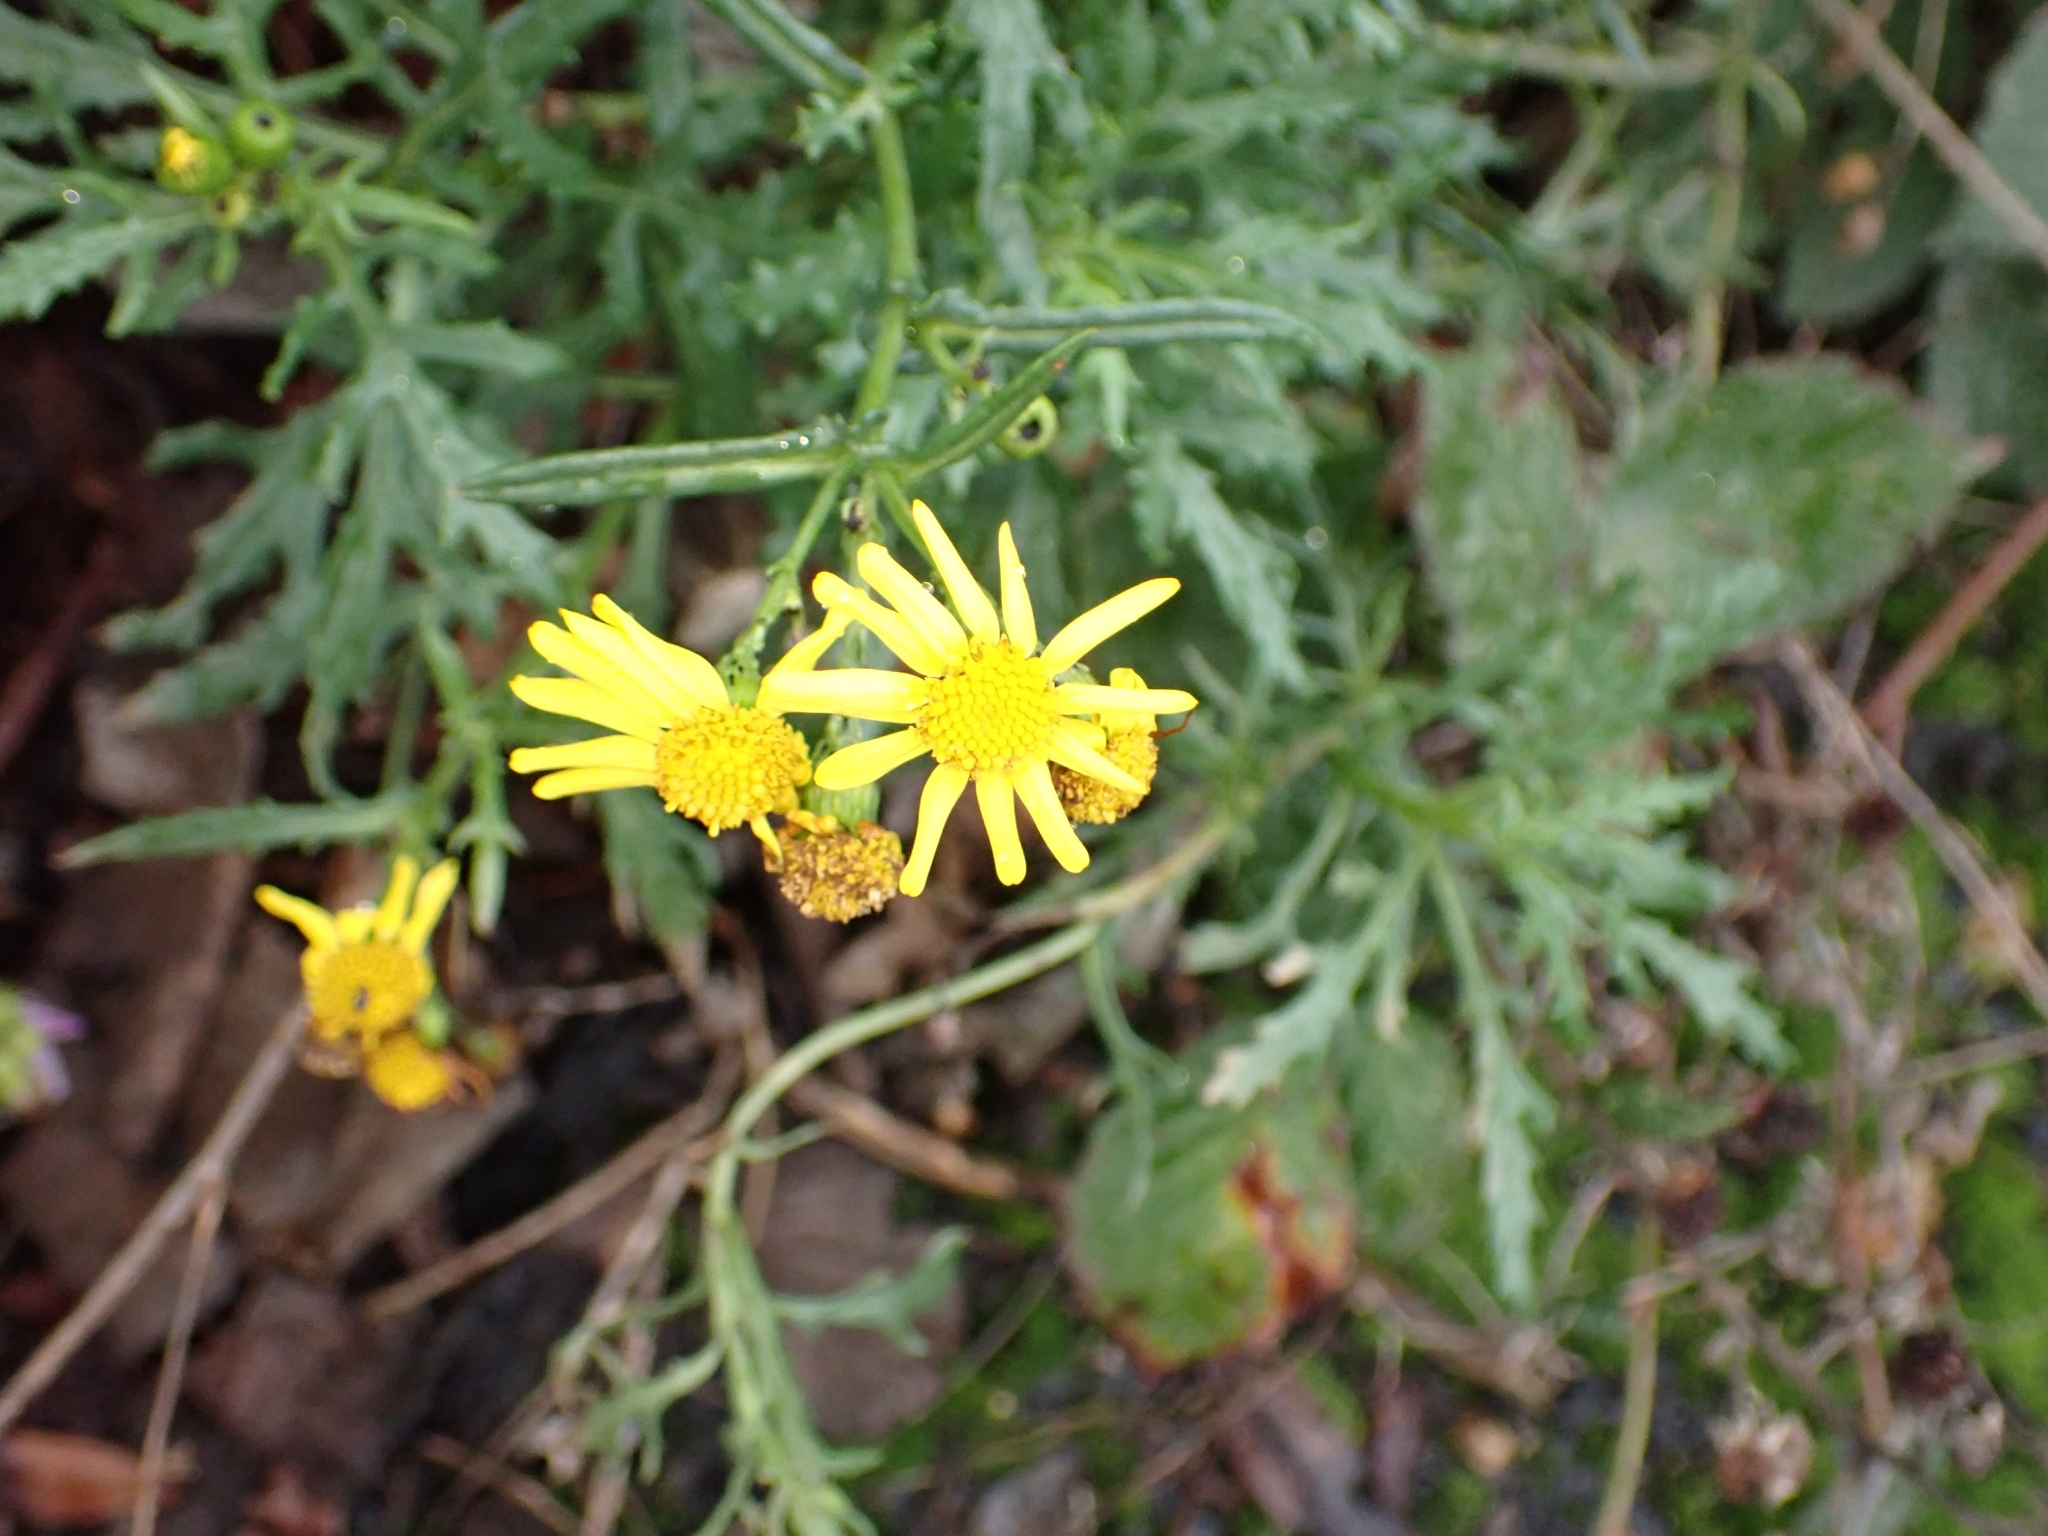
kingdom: Plantae
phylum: Tracheophyta
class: Magnoliopsida
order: Asterales
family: Asteraceae
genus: Senecio
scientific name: Senecio squalidus
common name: Oxford ragwort
